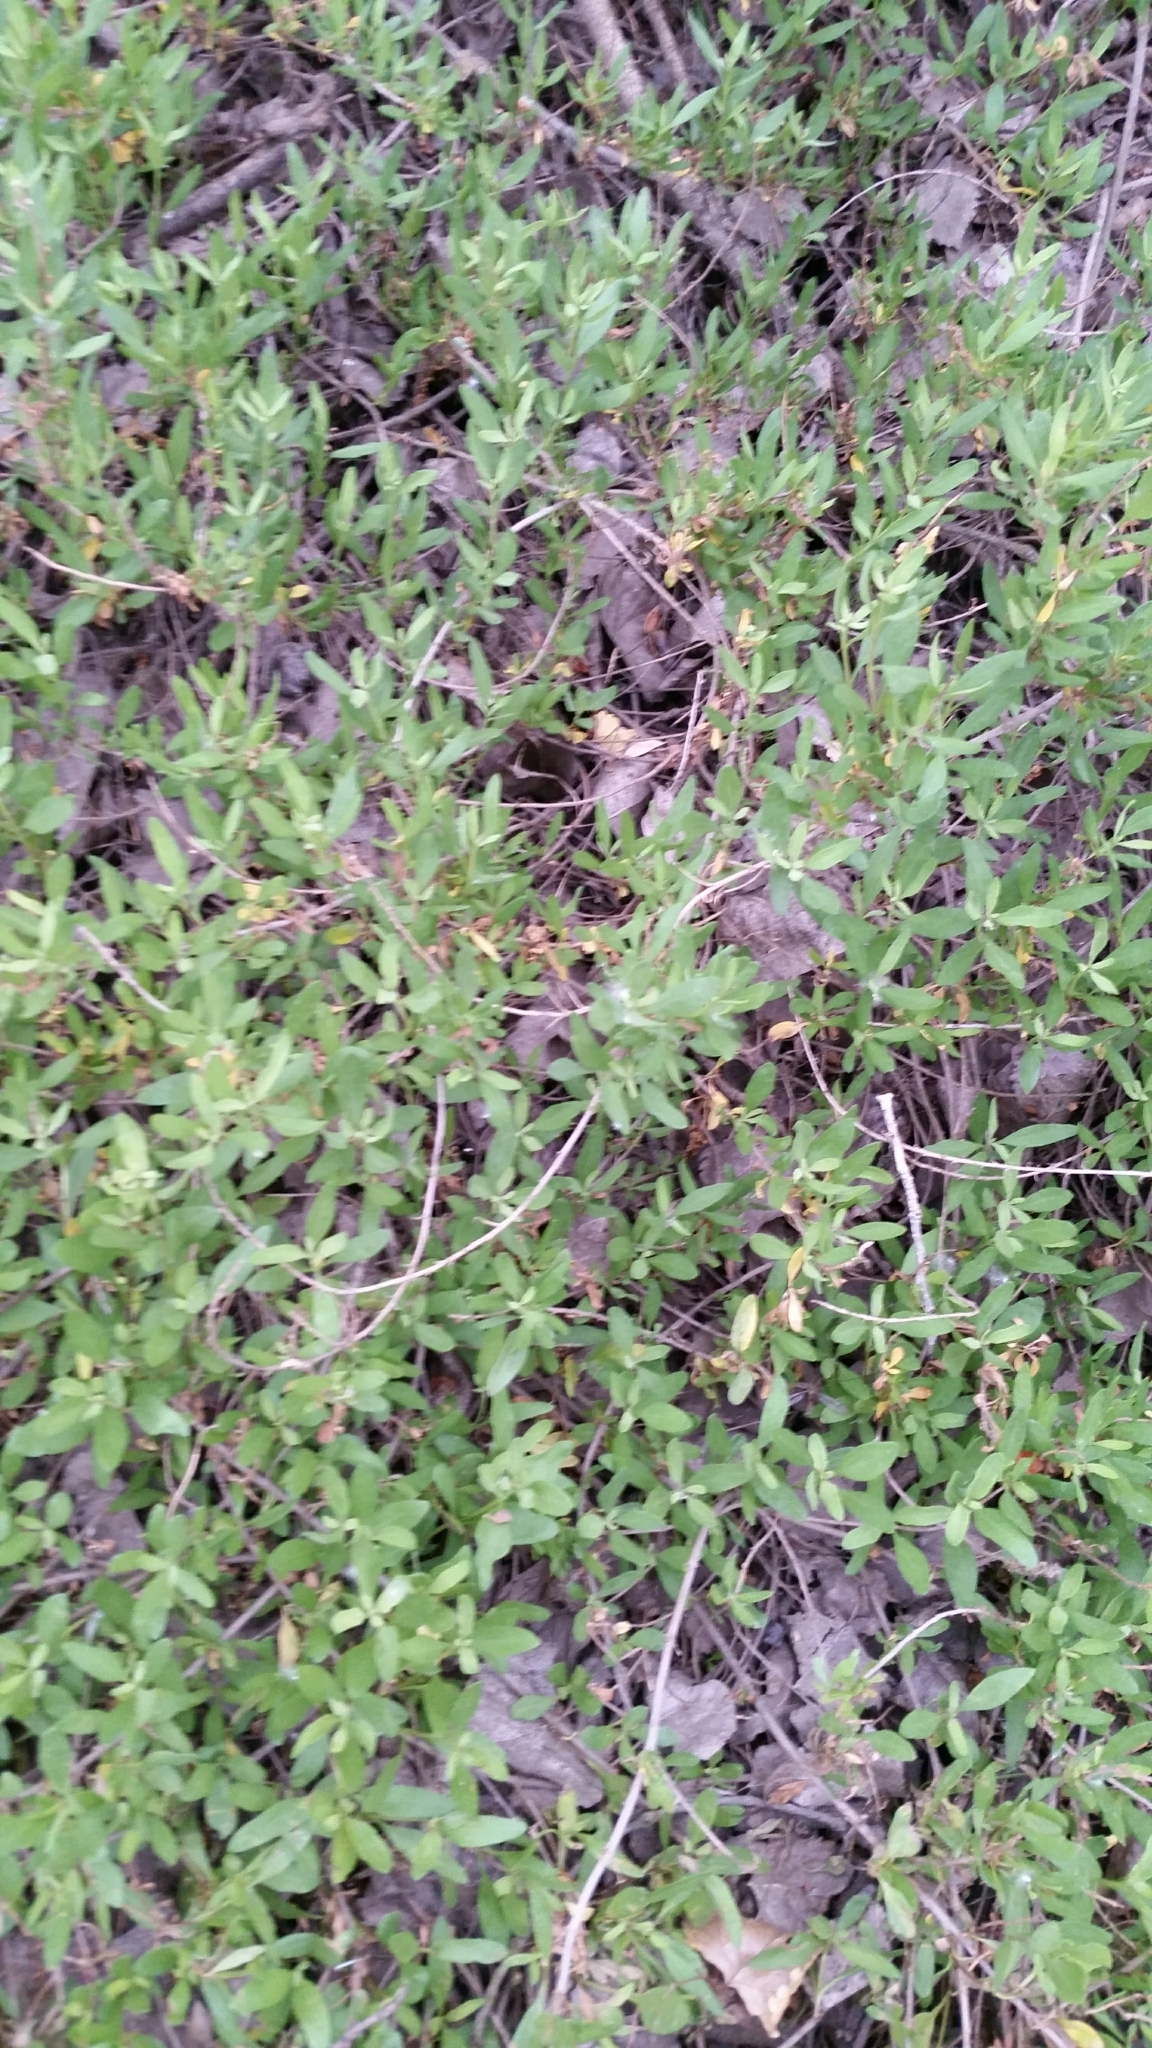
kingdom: Plantae
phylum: Tracheophyta
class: Magnoliopsida
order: Asterales
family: Asteraceae
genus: Iva
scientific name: Iva hayesiana
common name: San diego marsh-elder
